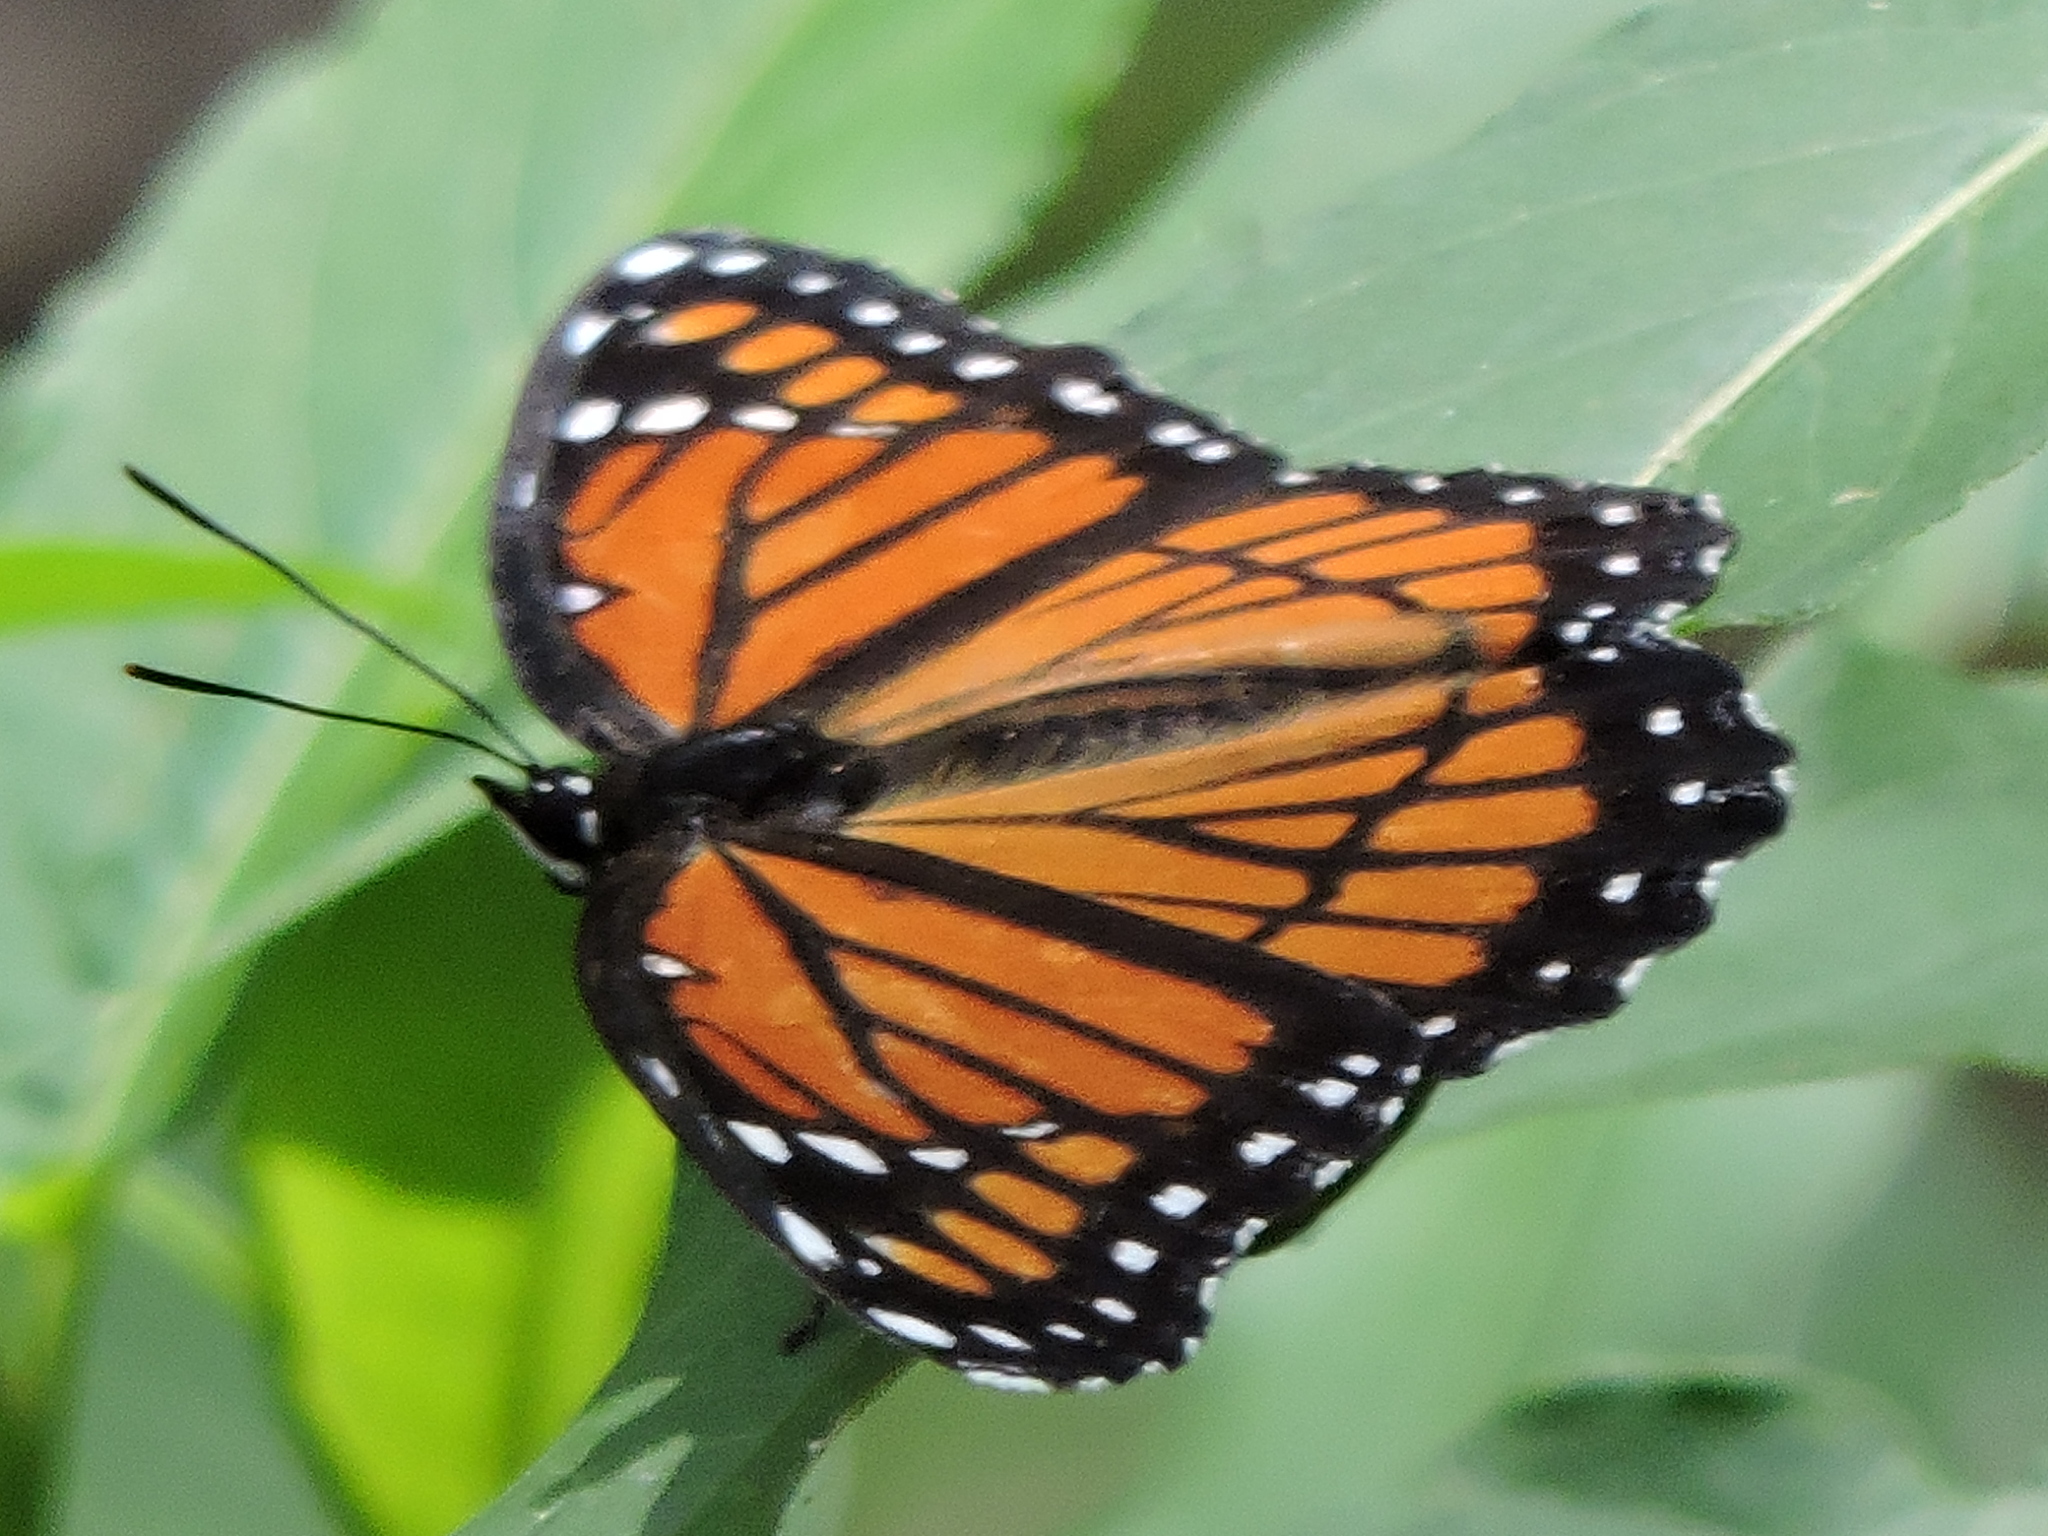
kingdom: Animalia
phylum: Arthropoda
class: Insecta
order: Lepidoptera
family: Nymphalidae
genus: Limenitis
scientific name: Limenitis archippus
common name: Viceroy
